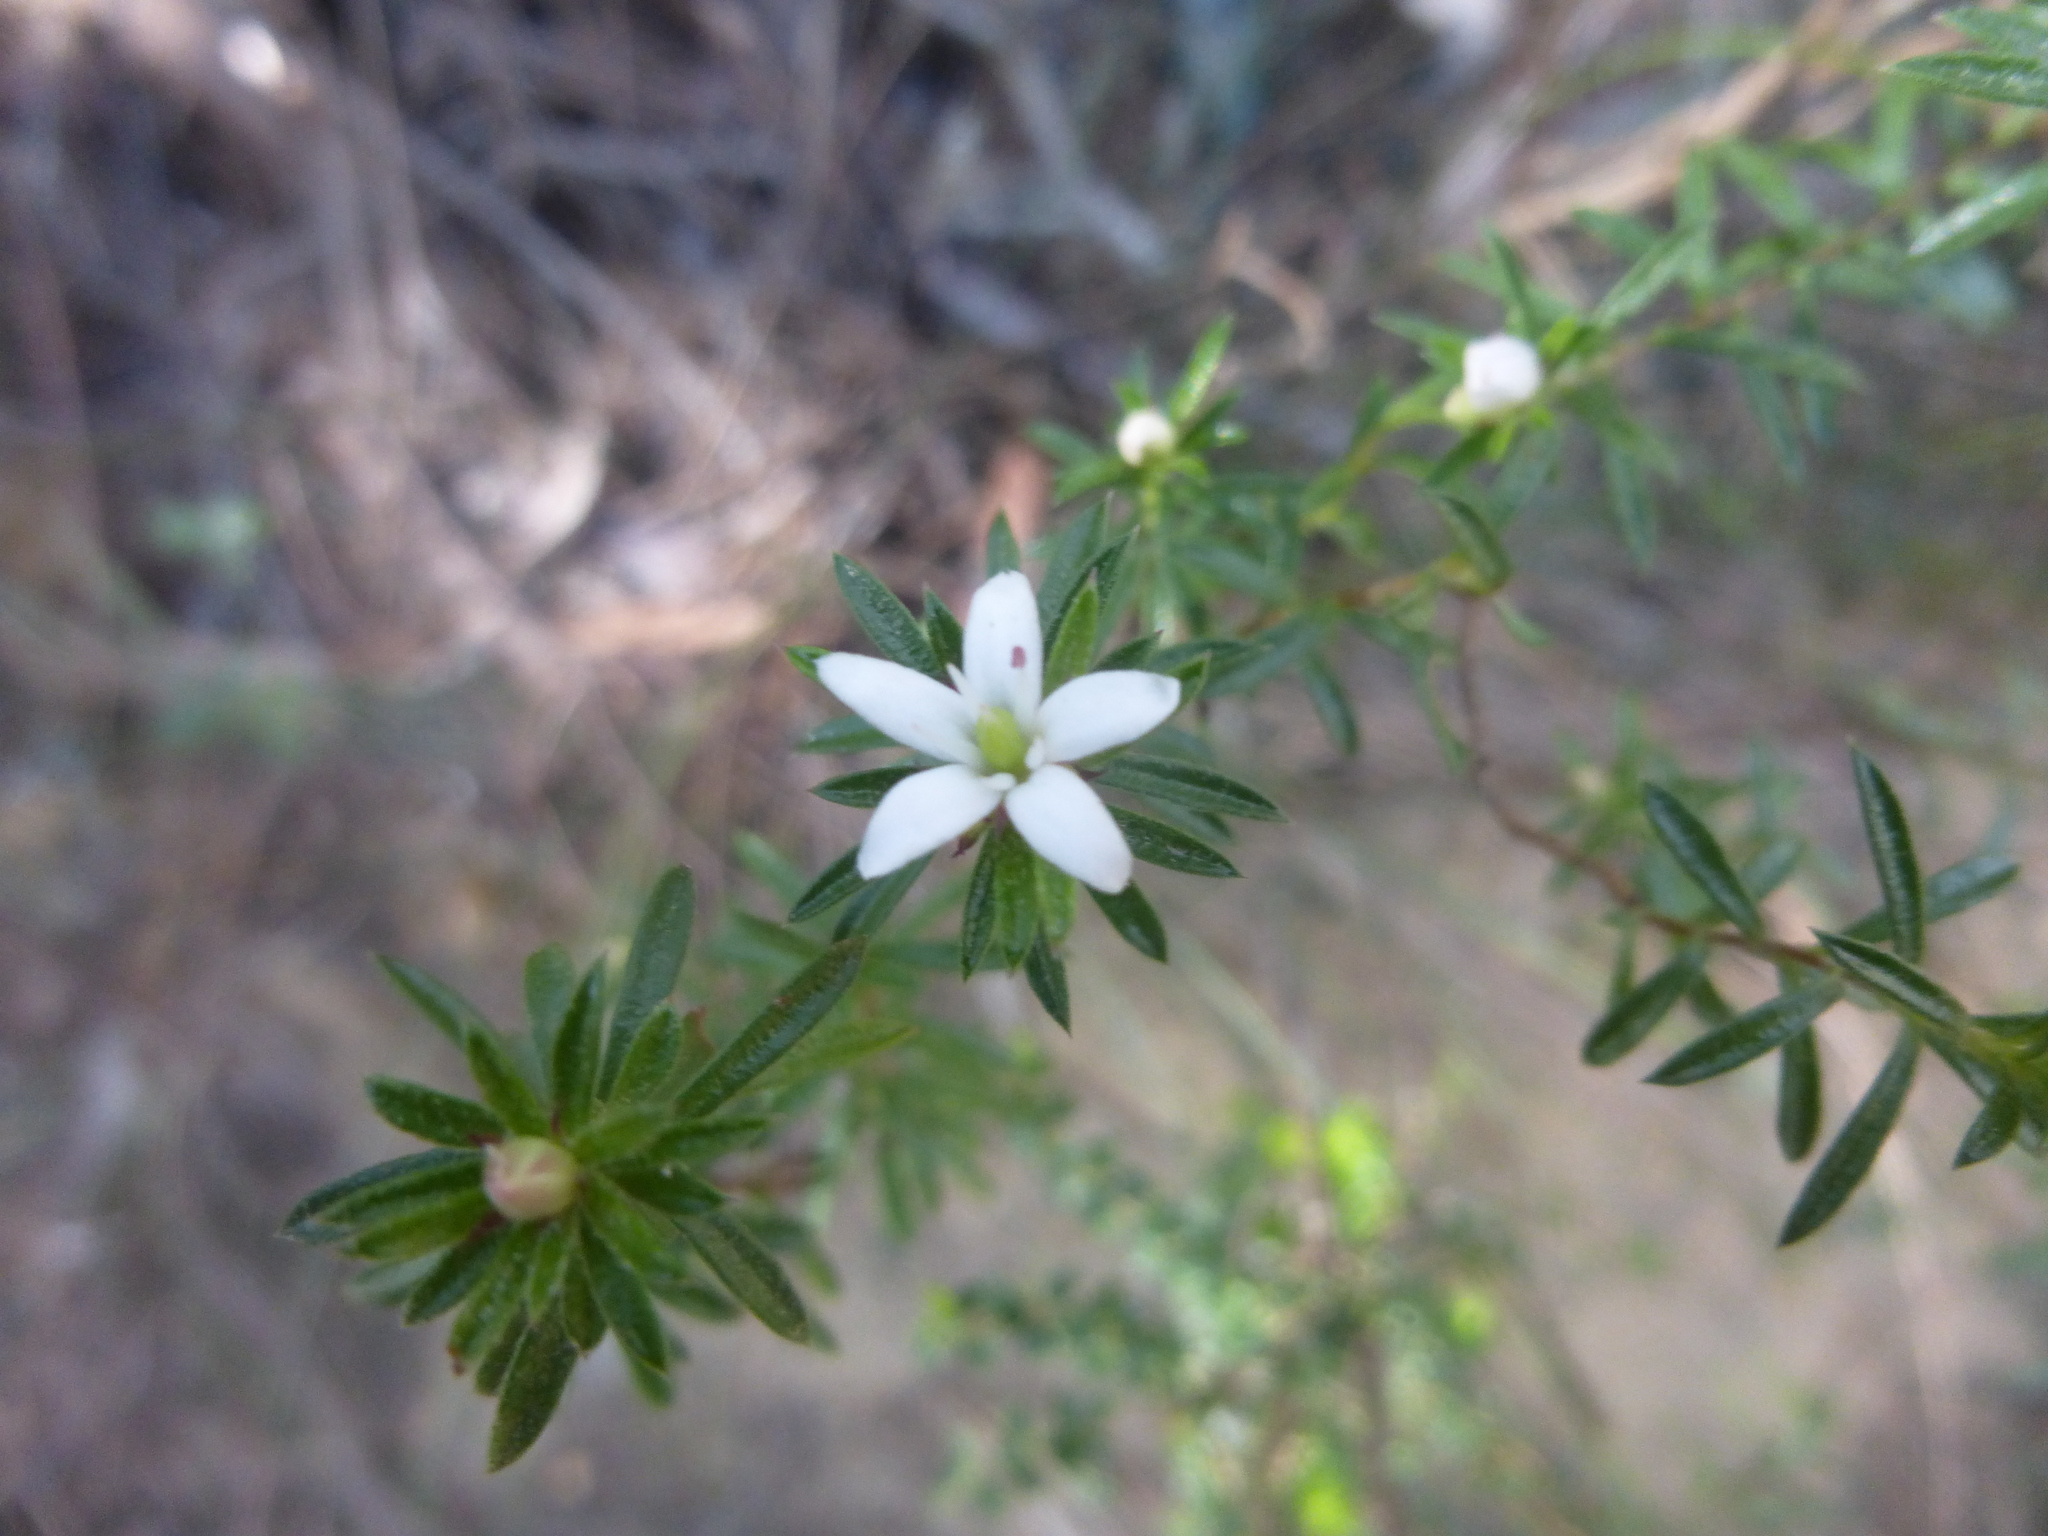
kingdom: Plantae
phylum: Tracheophyta
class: Magnoliopsida
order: Apiales
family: Pittosporaceae
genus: Rhytidosporum
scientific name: Rhytidosporum procumbens
